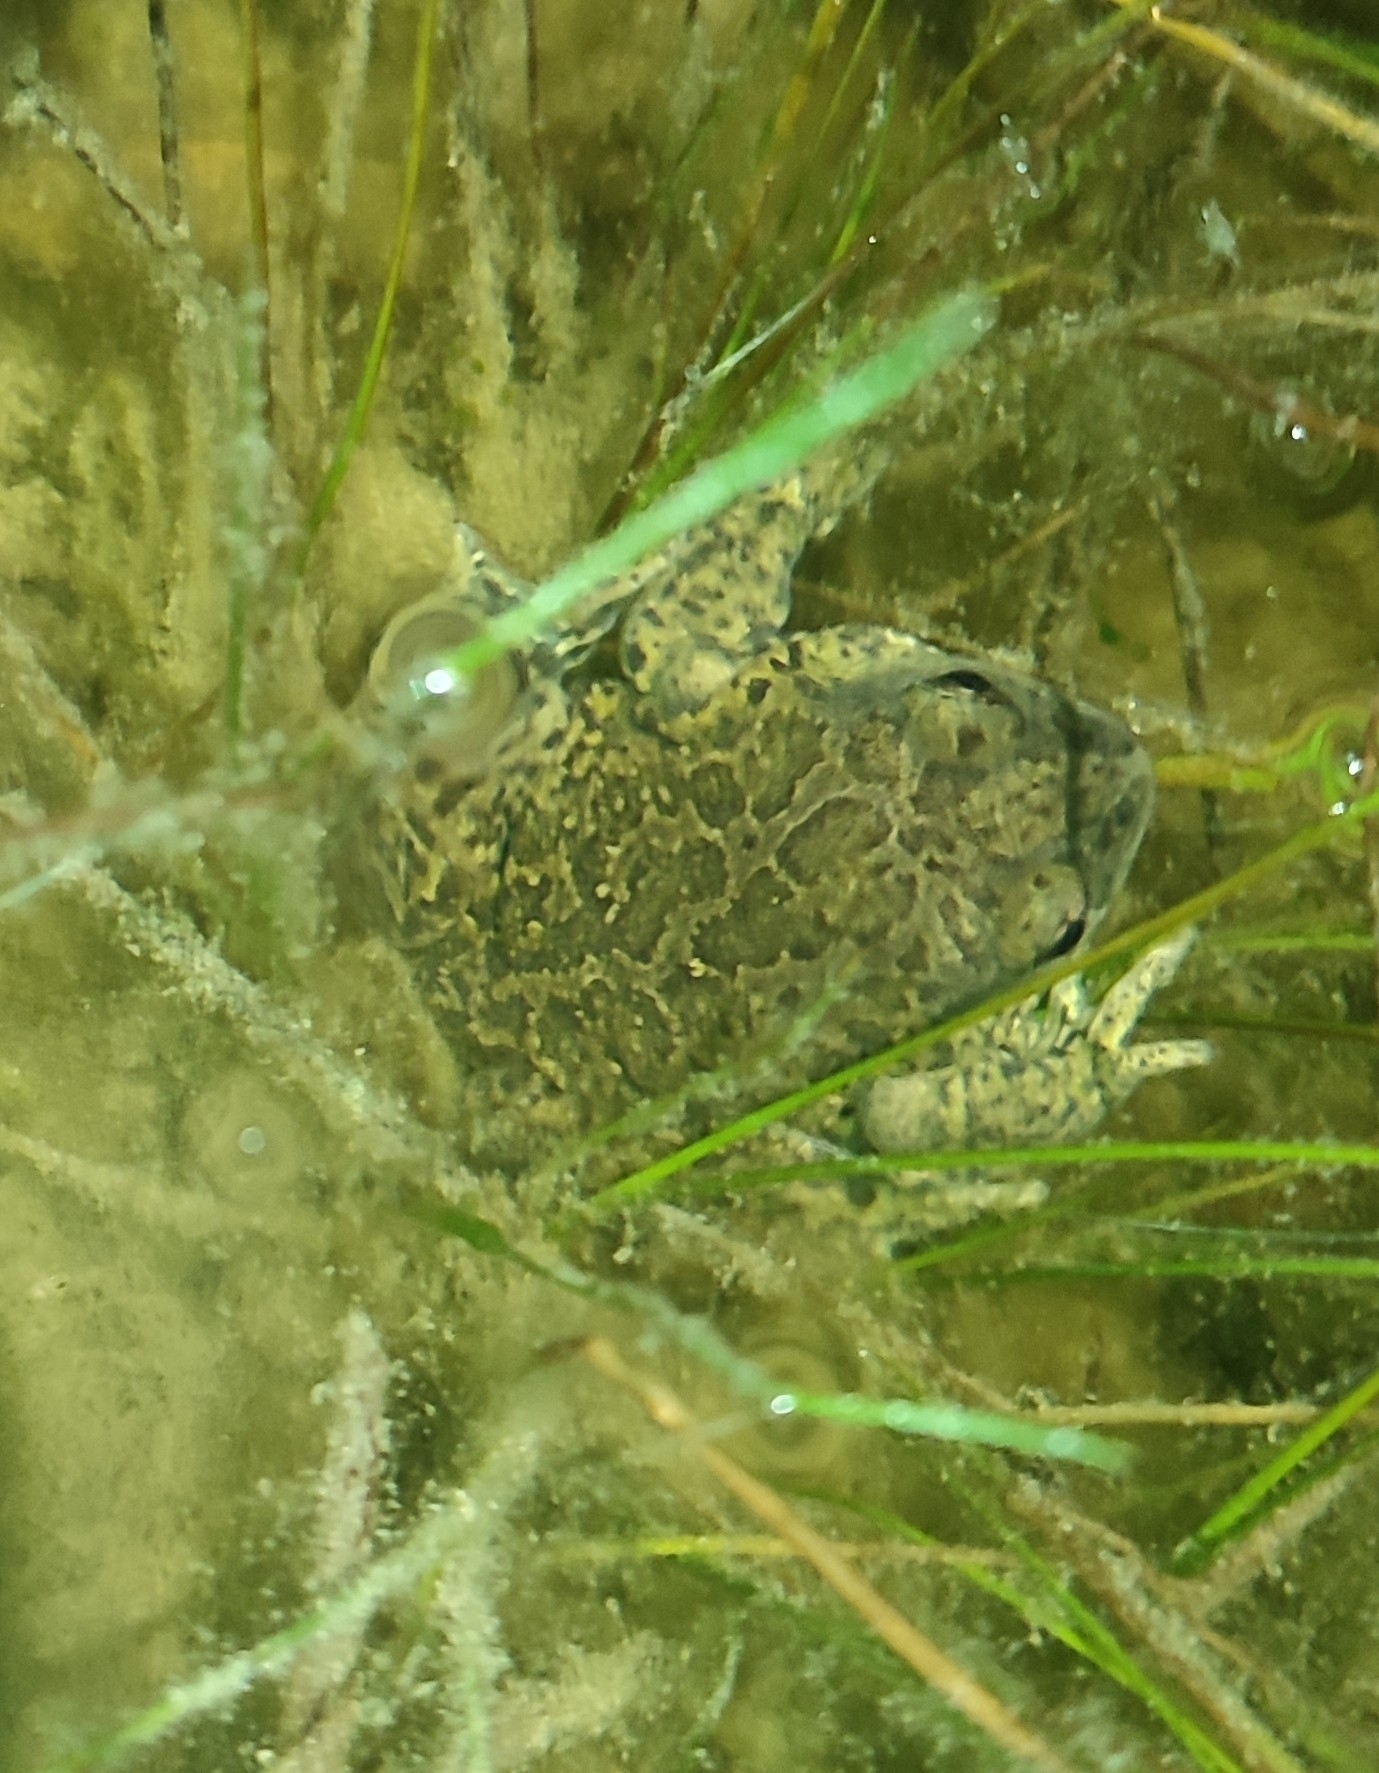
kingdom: Animalia
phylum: Chordata
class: Amphibia
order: Anura
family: Pelobatidae
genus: Pelobates
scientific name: Pelobates cultripes
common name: Western spadefoot
